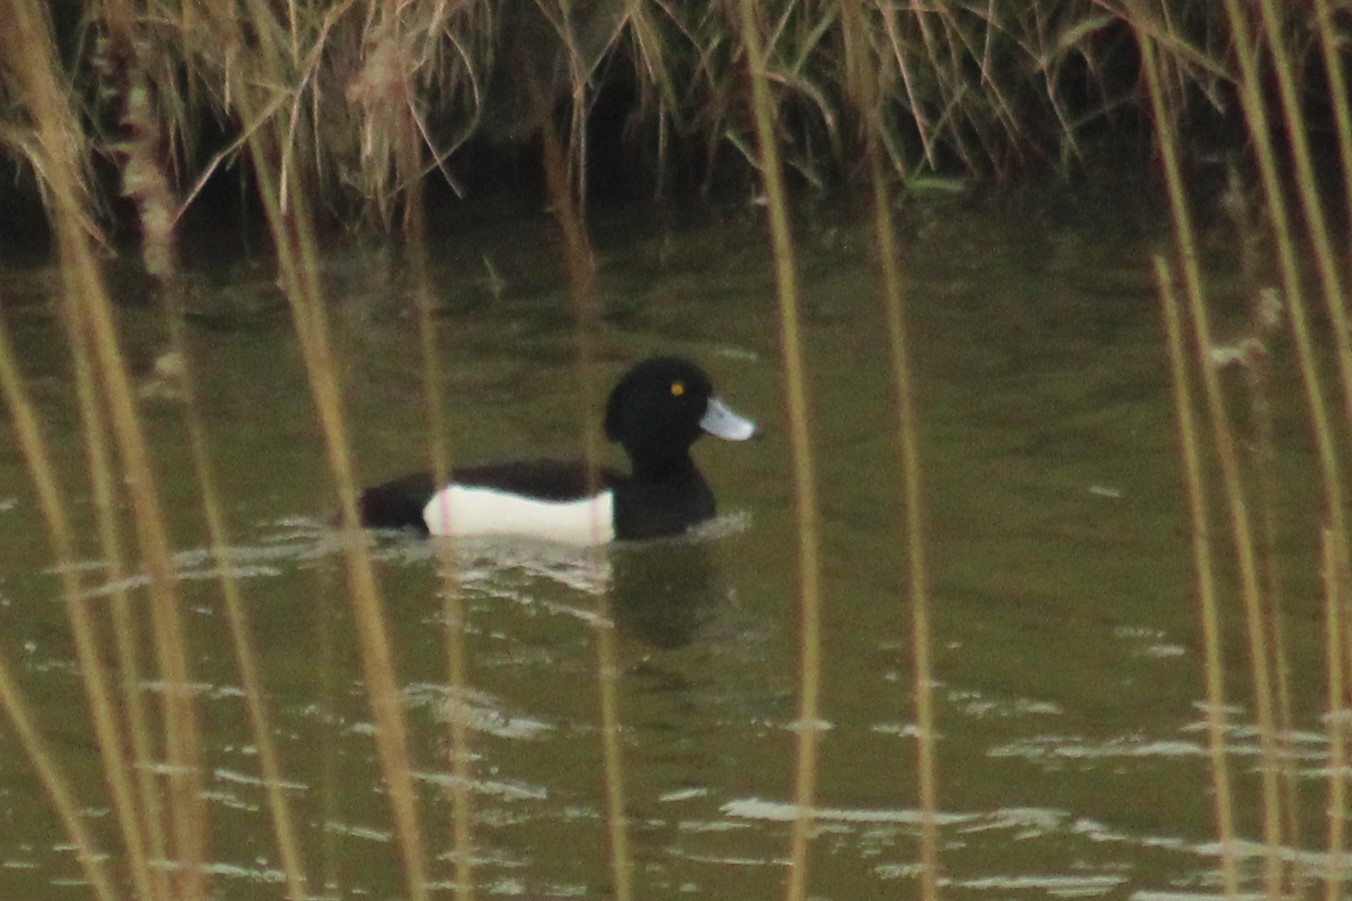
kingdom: Animalia
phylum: Chordata
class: Aves
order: Anseriformes
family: Anatidae
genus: Aythya
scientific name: Aythya fuligula
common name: Tufted duck
